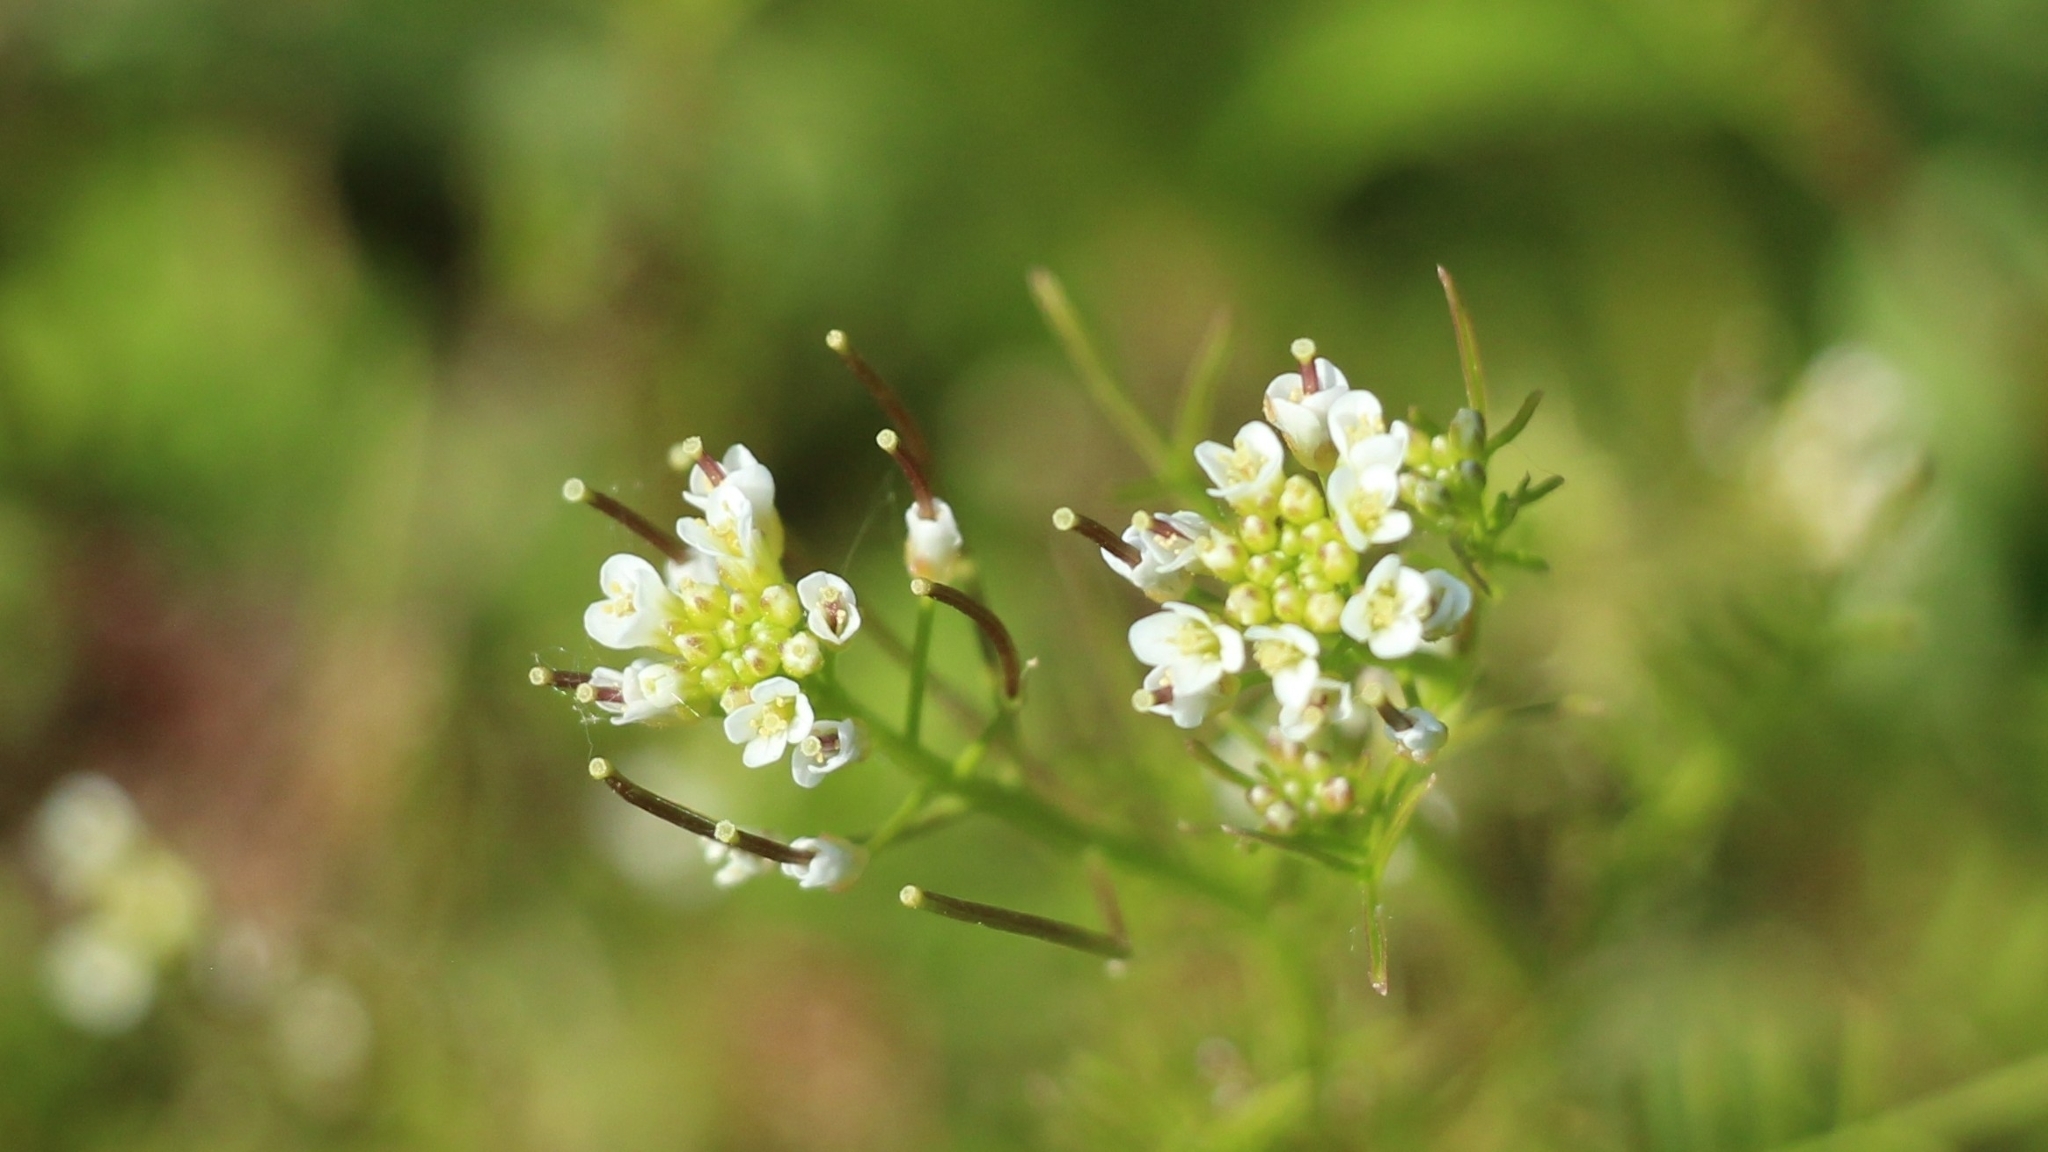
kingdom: Plantae
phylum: Tracheophyta
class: Magnoliopsida
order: Brassicales
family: Brassicaceae
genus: Cardamine
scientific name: Cardamine parviflora
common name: Sand bittercress
